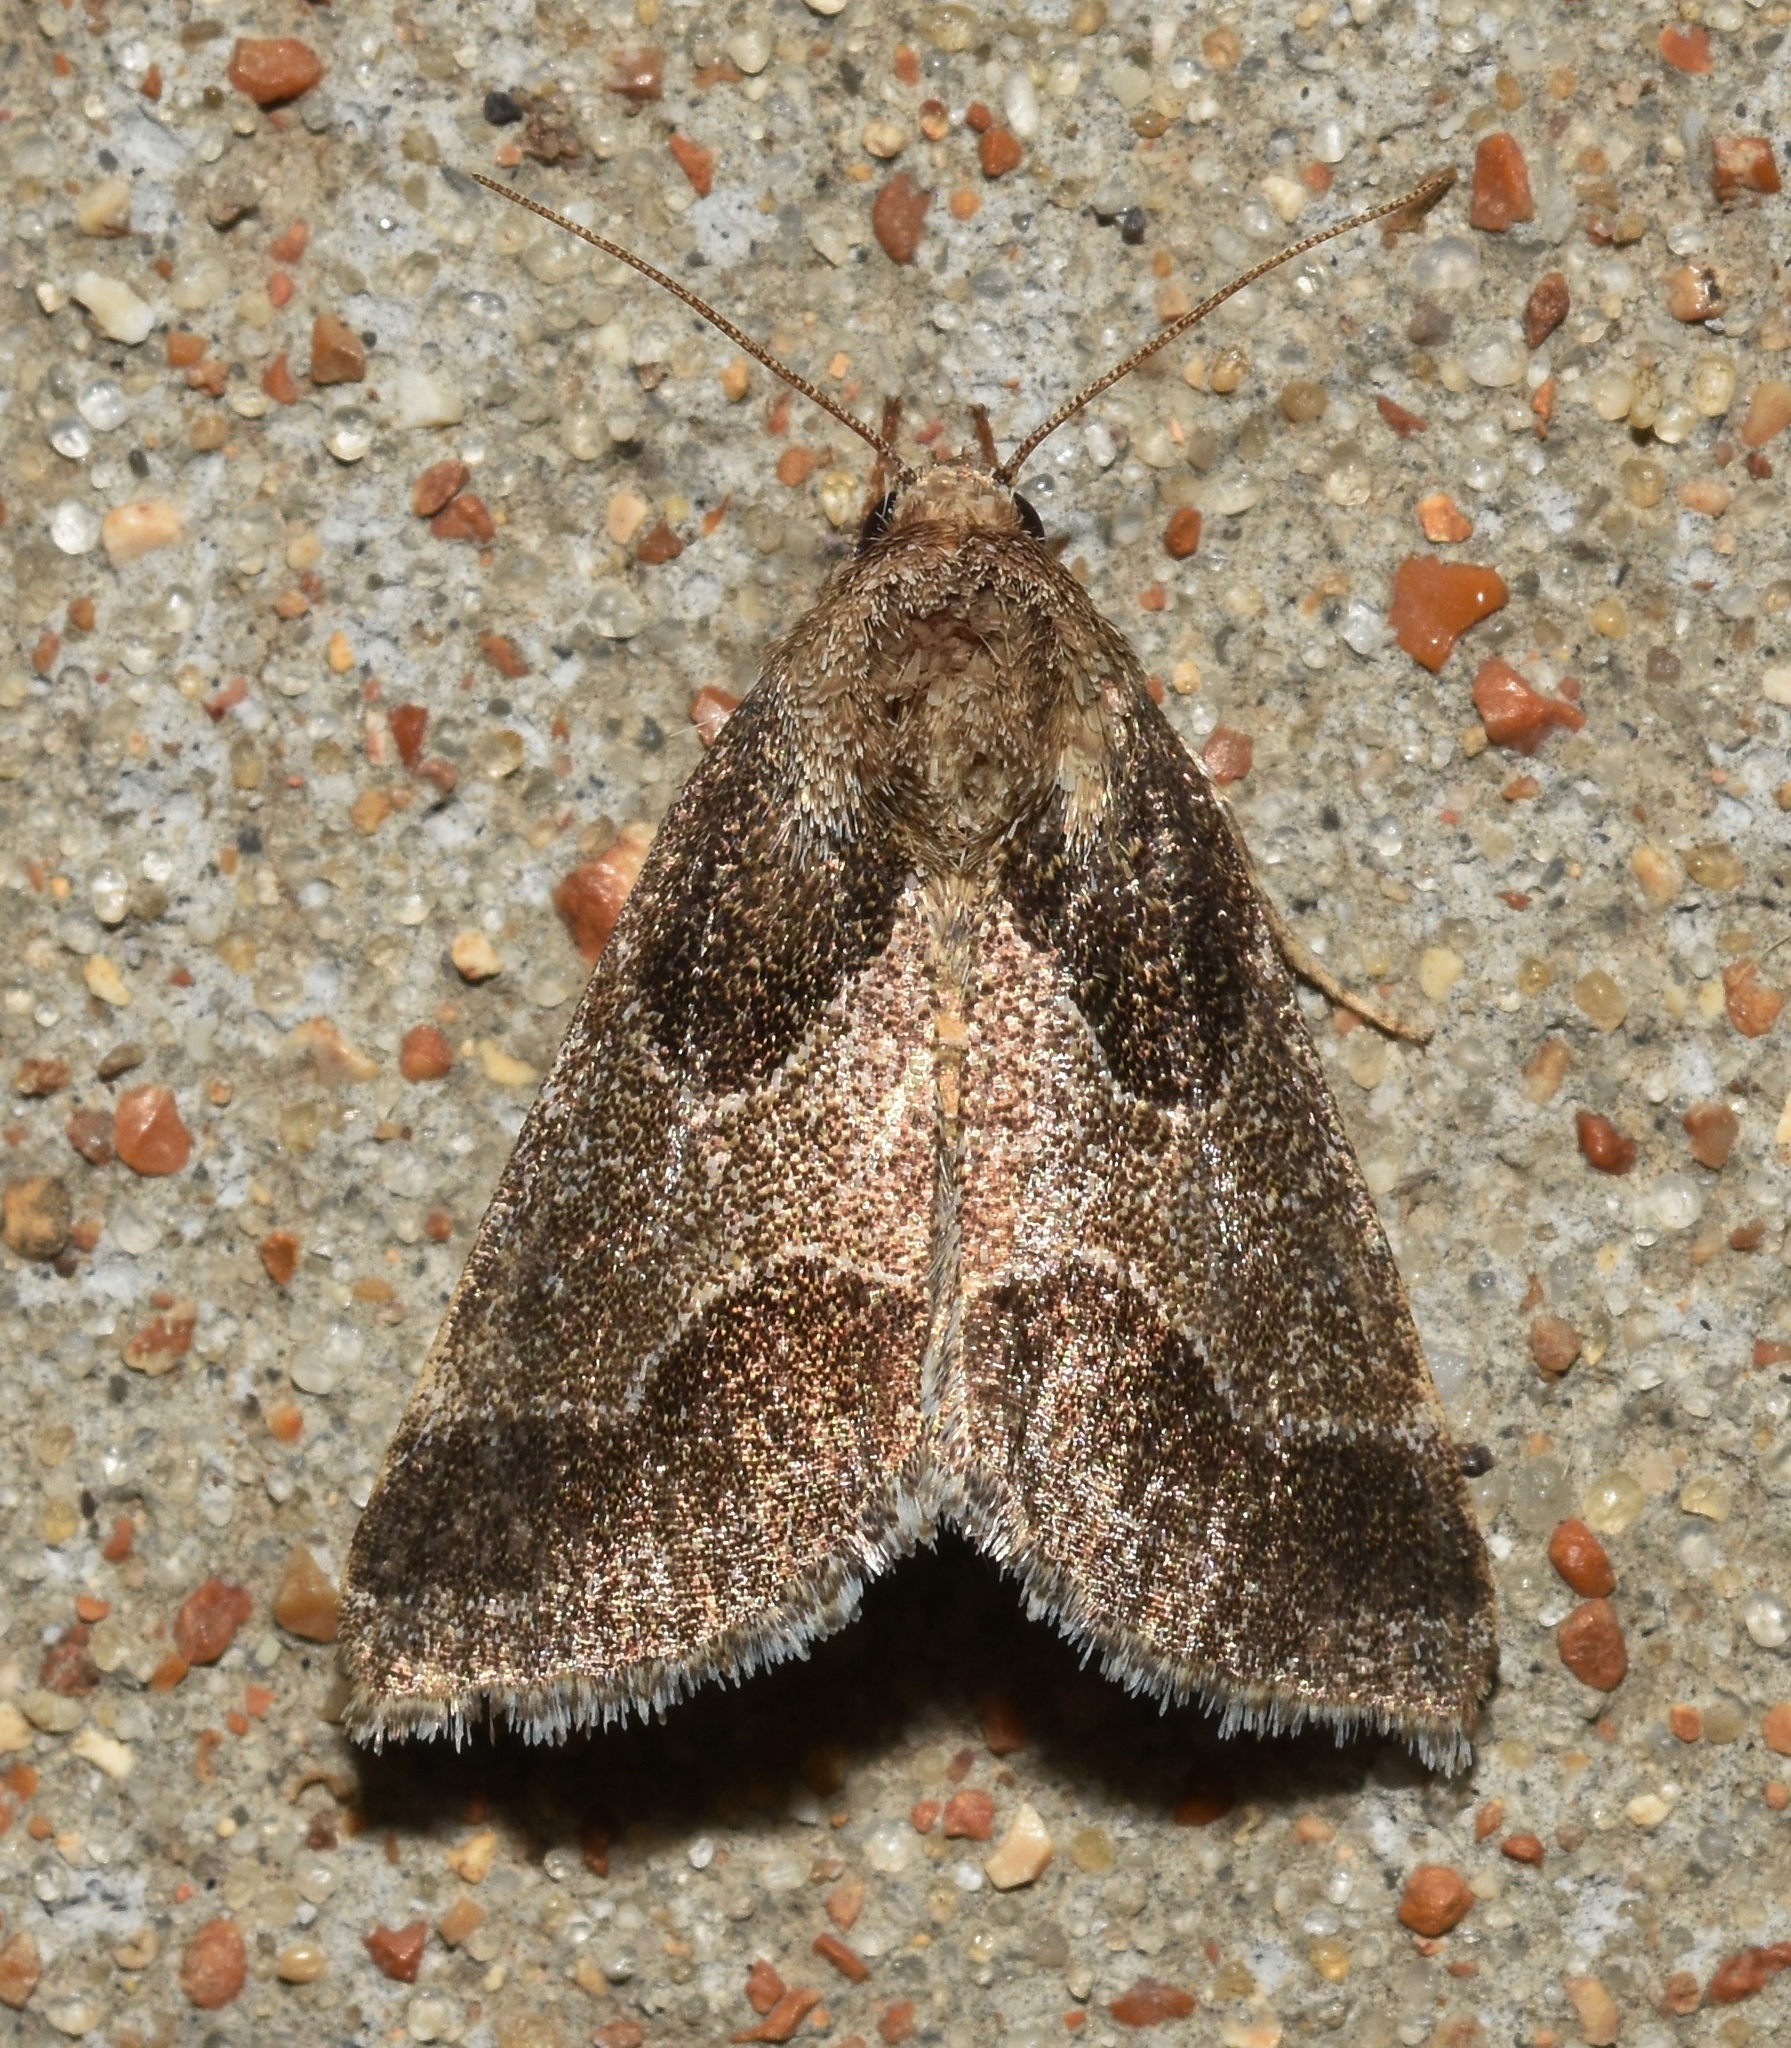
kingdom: Animalia
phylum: Arthropoda
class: Insecta
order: Lepidoptera
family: Noctuidae
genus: Schinia
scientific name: Schinia rivulosa
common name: Scarce meal-moth
